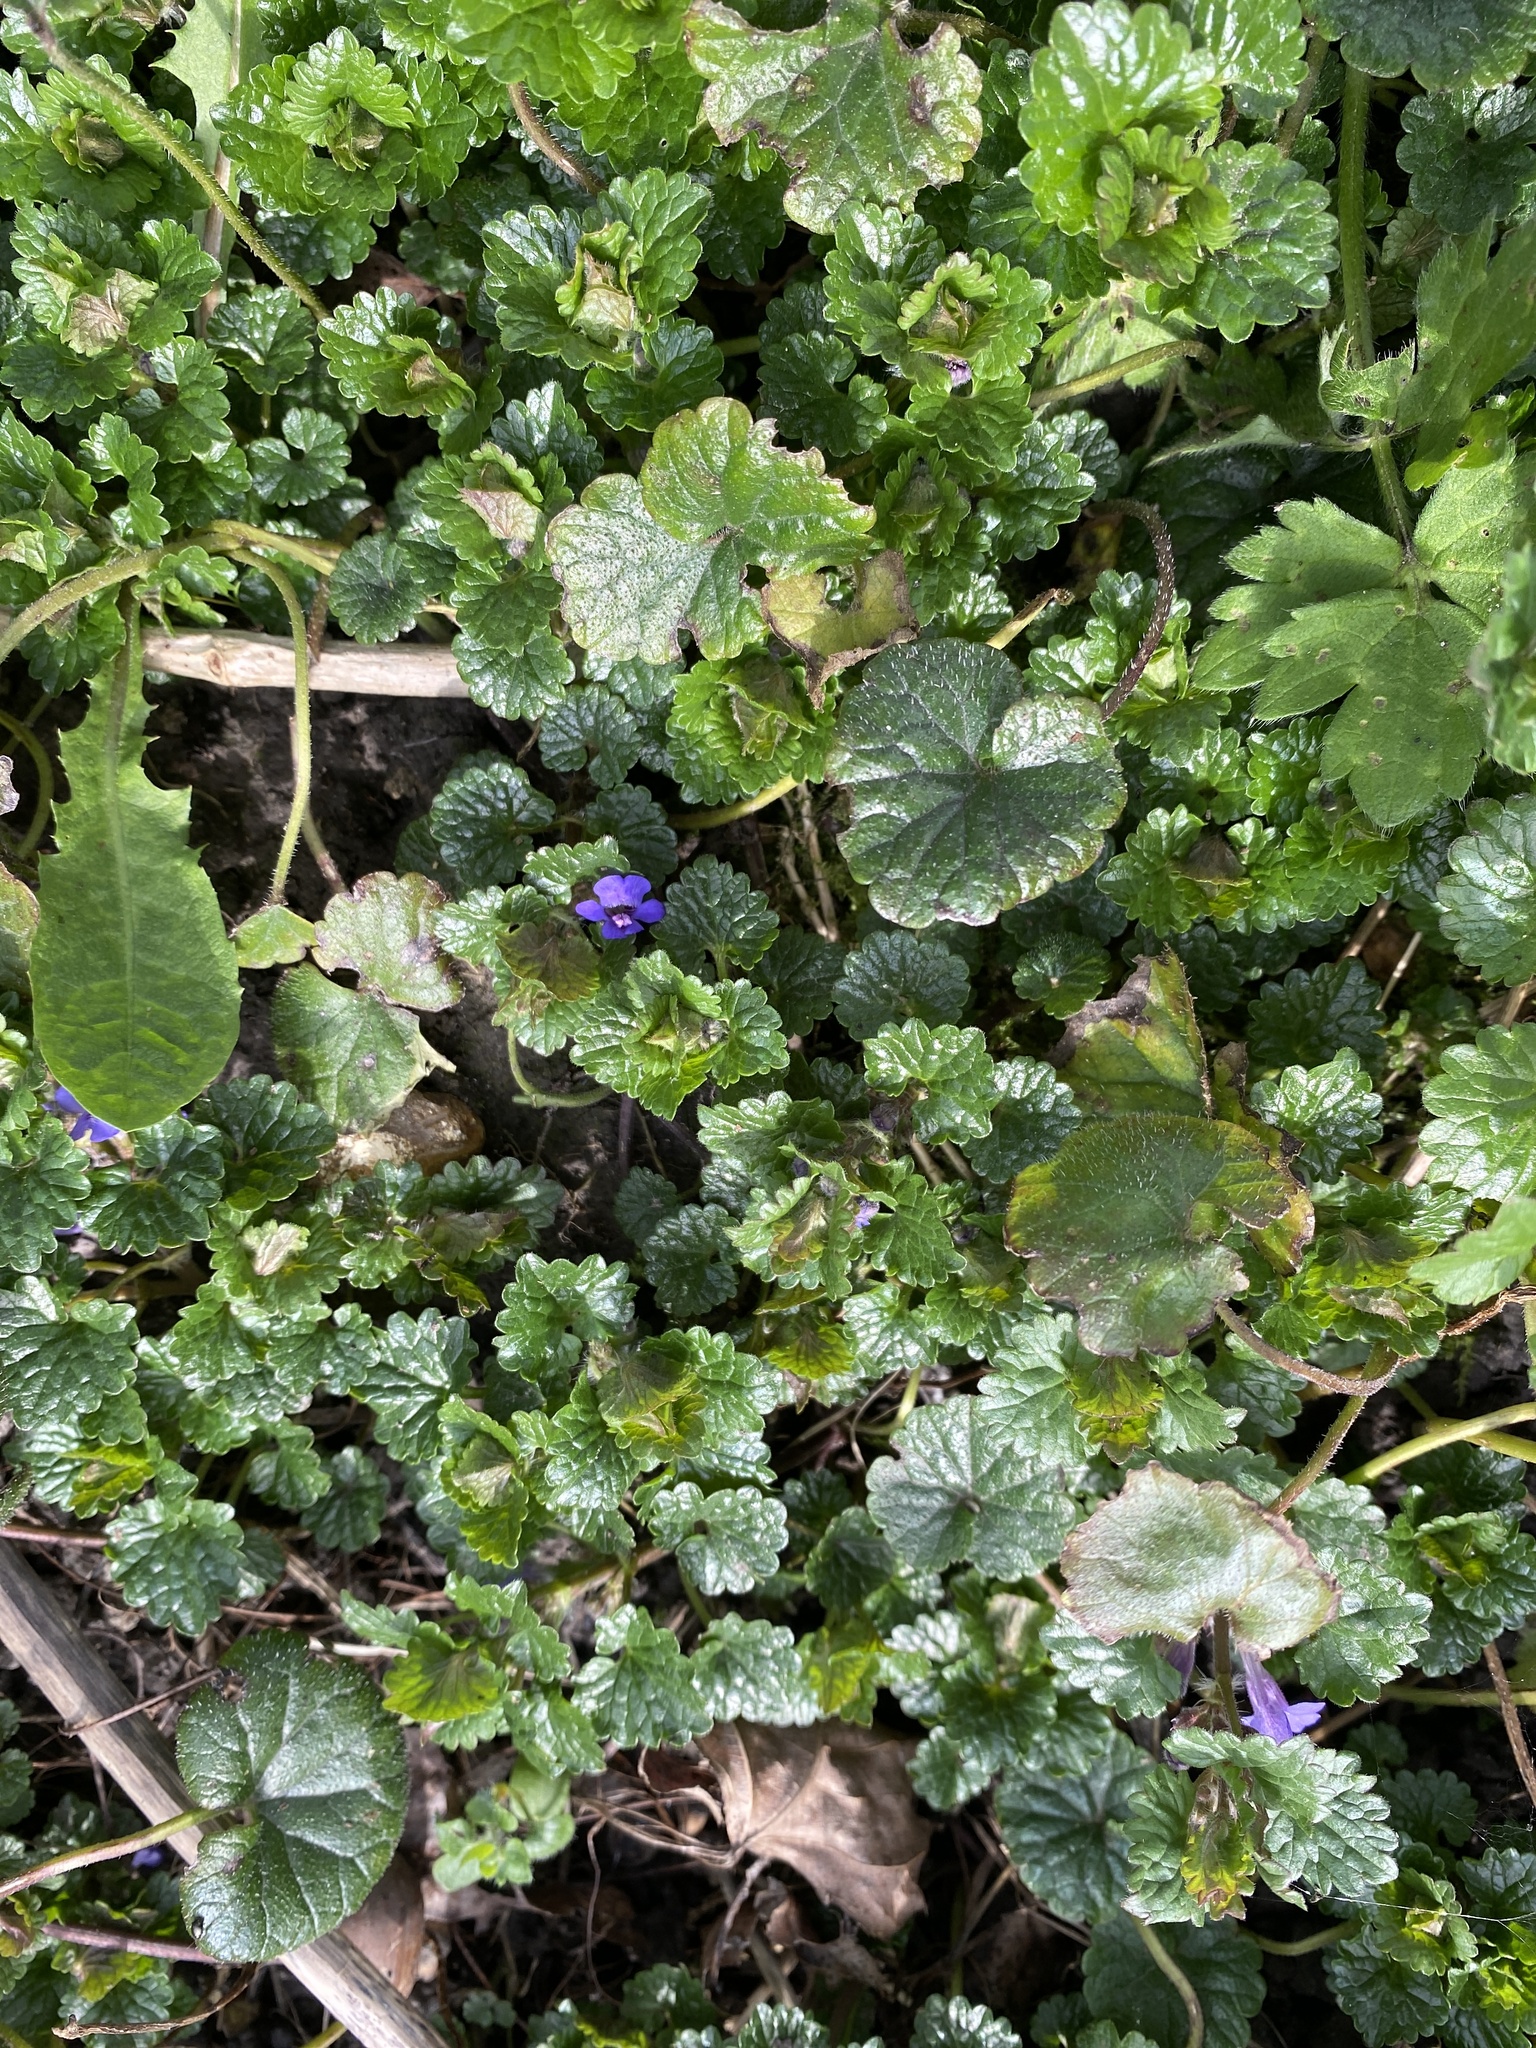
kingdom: Plantae
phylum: Tracheophyta
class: Magnoliopsida
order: Lamiales
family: Lamiaceae
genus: Glechoma
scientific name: Glechoma hederacea
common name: Ground ivy
